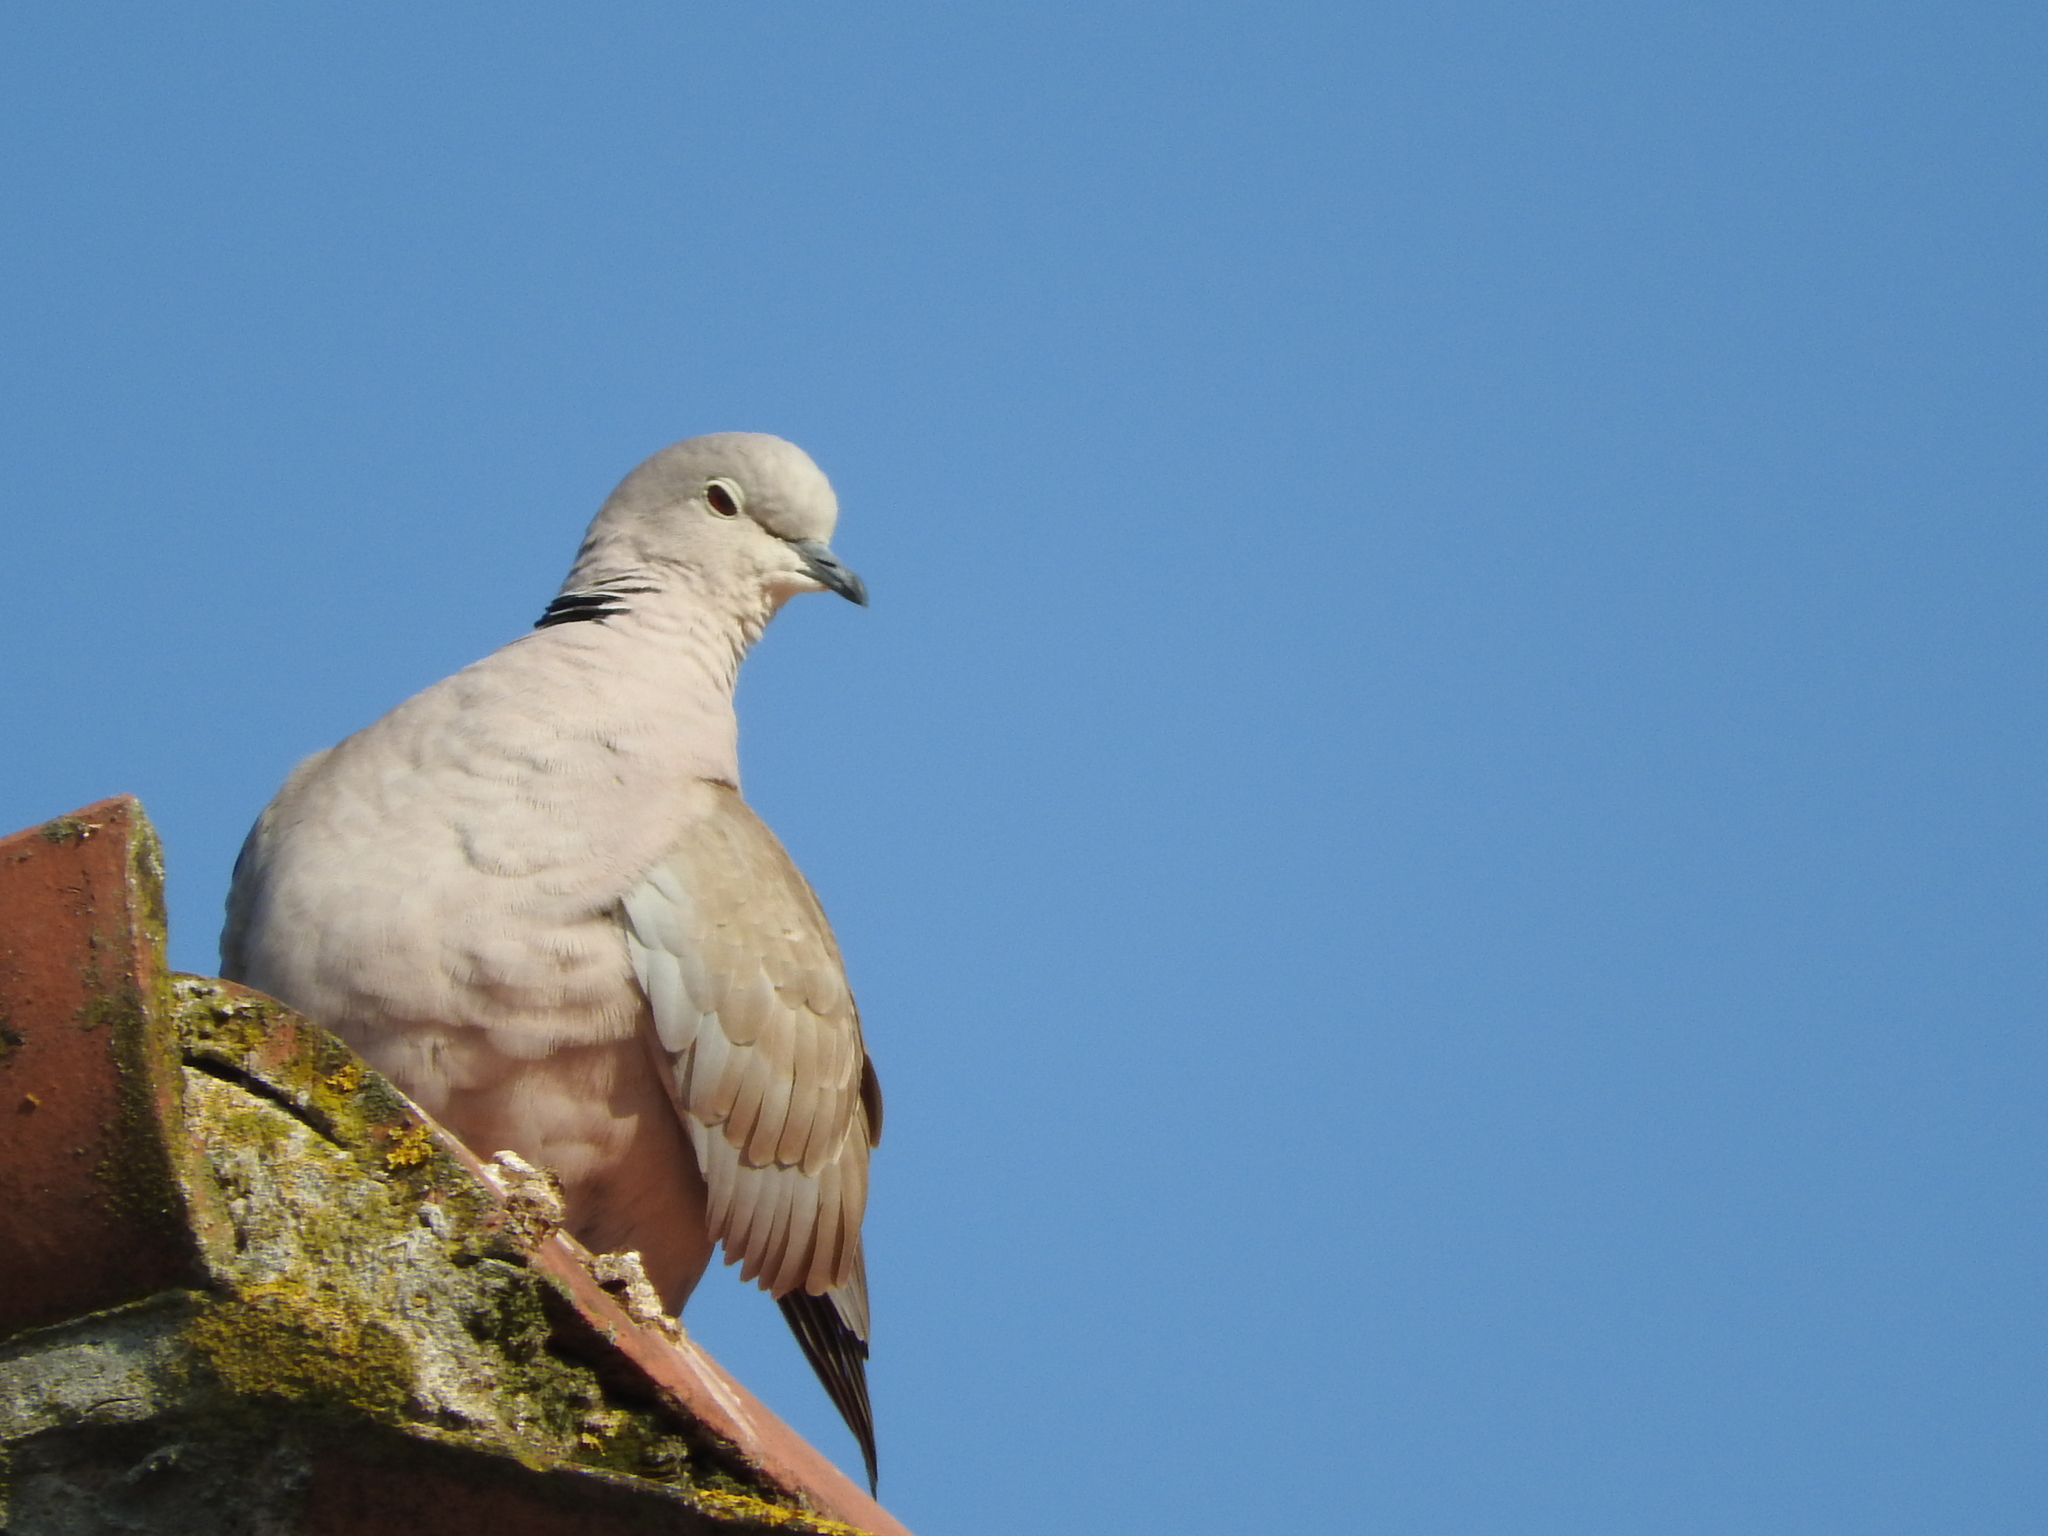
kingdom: Animalia
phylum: Chordata
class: Aves
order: Columbiformes
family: Columbidae
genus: Streptopelia
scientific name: Streptopelia decaocto
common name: Eurasian collared dove
